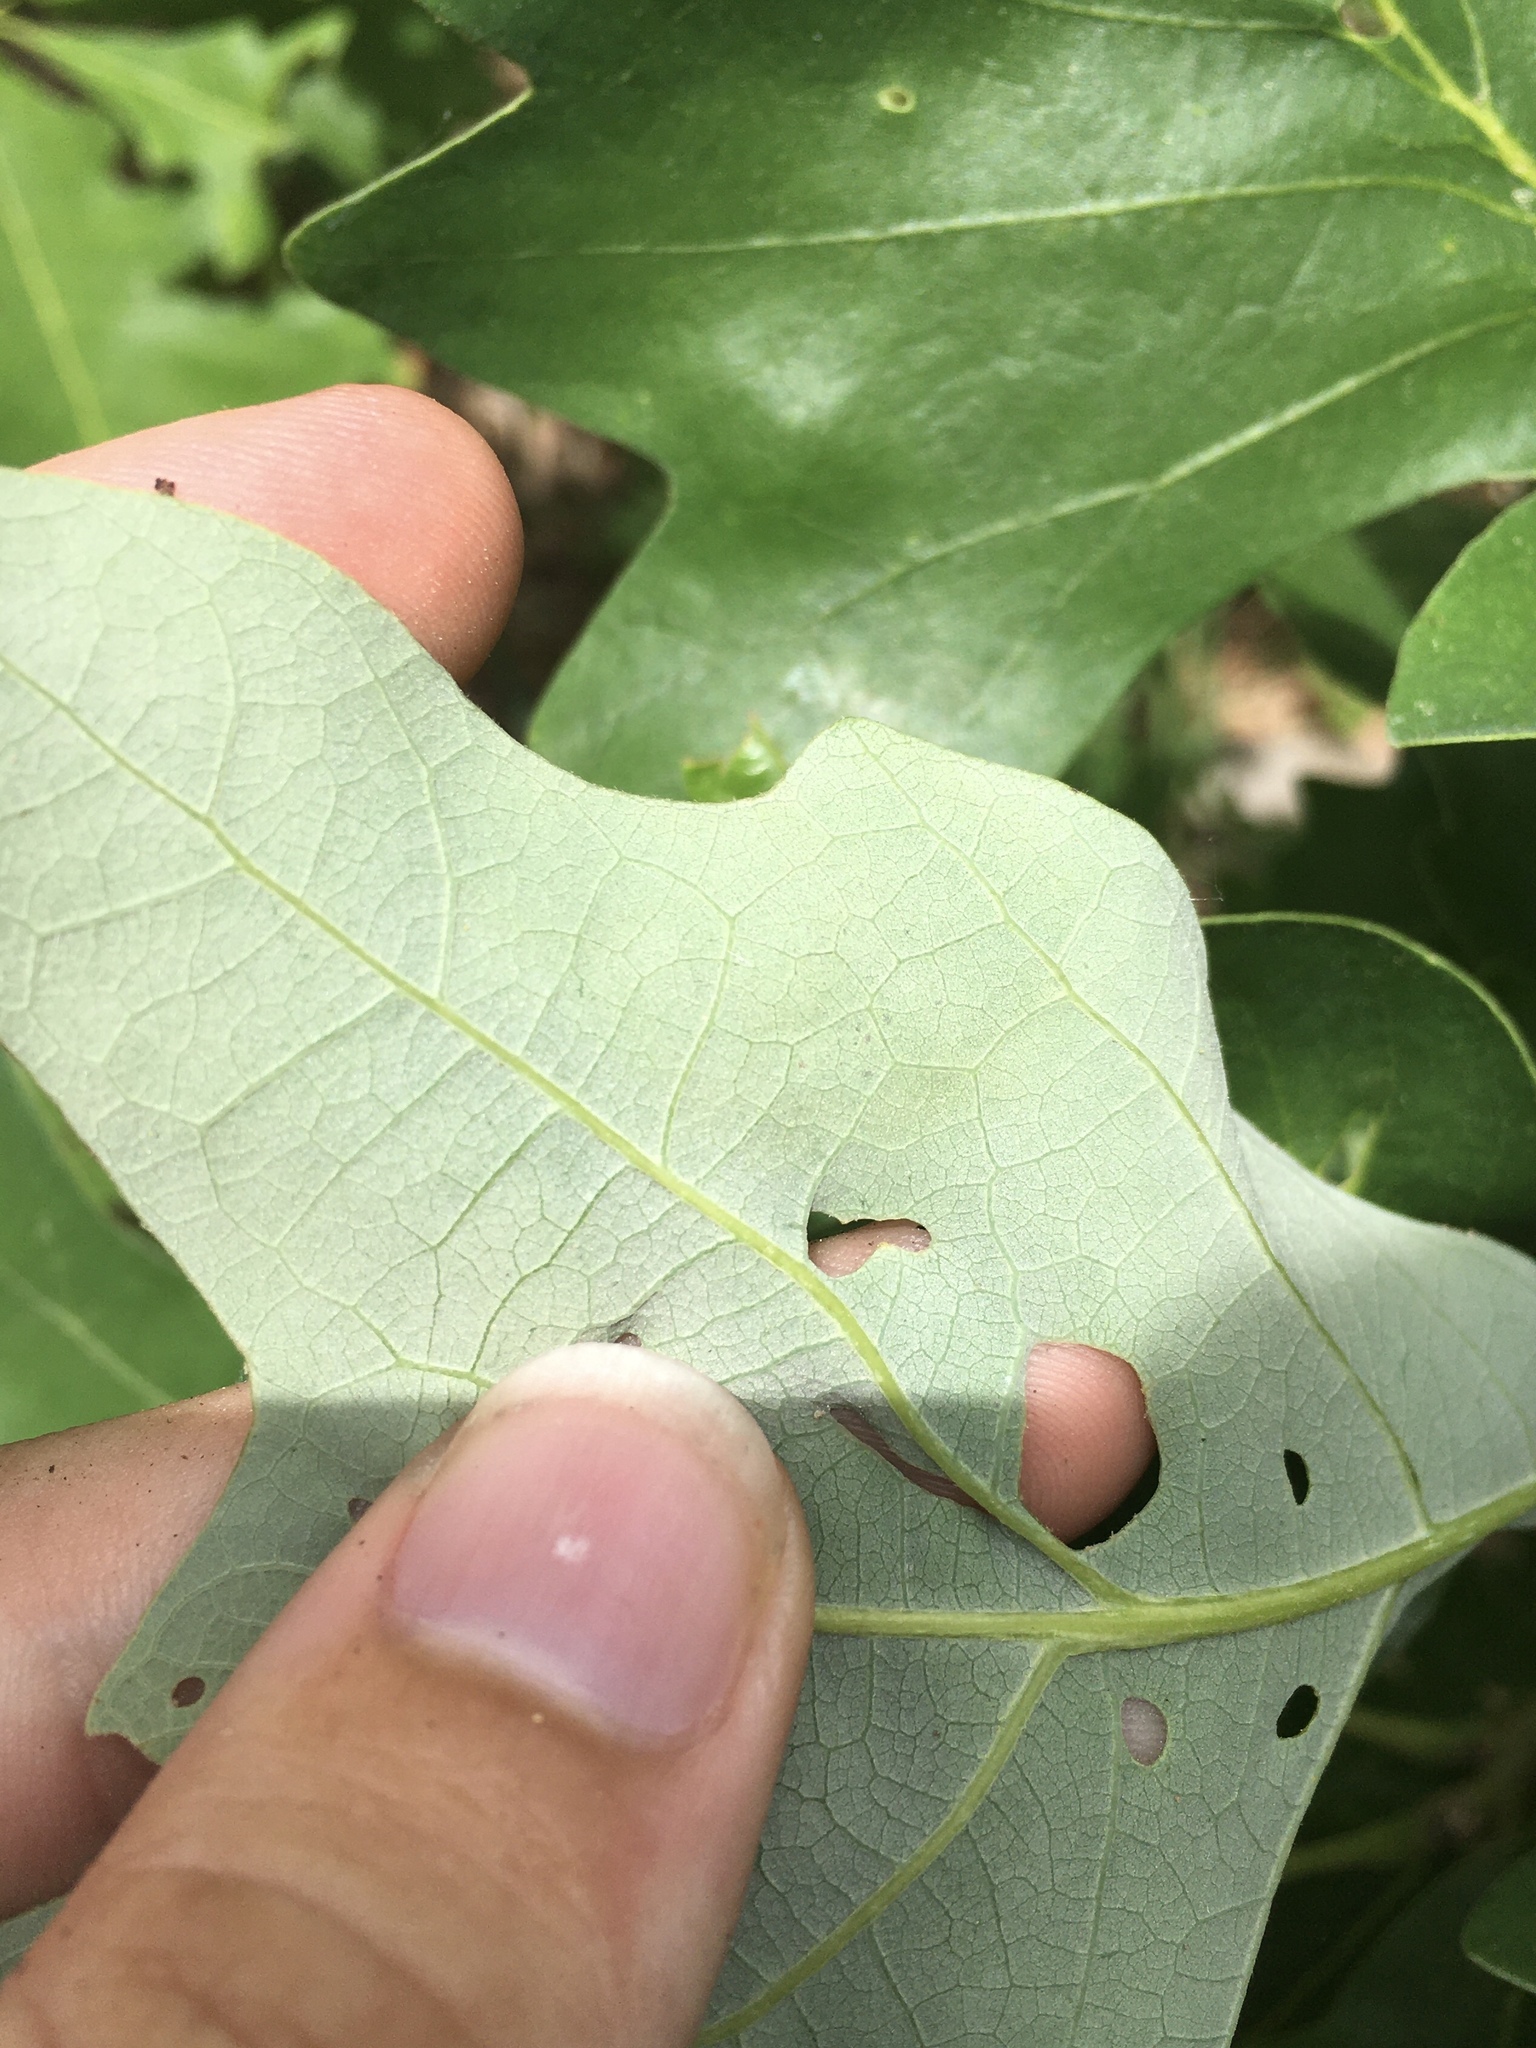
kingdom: Animalia
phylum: Arthropoda
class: Insecta
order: Lepidoptera
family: Gracillariidae
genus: Cryptolectica
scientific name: Cryptolectica
